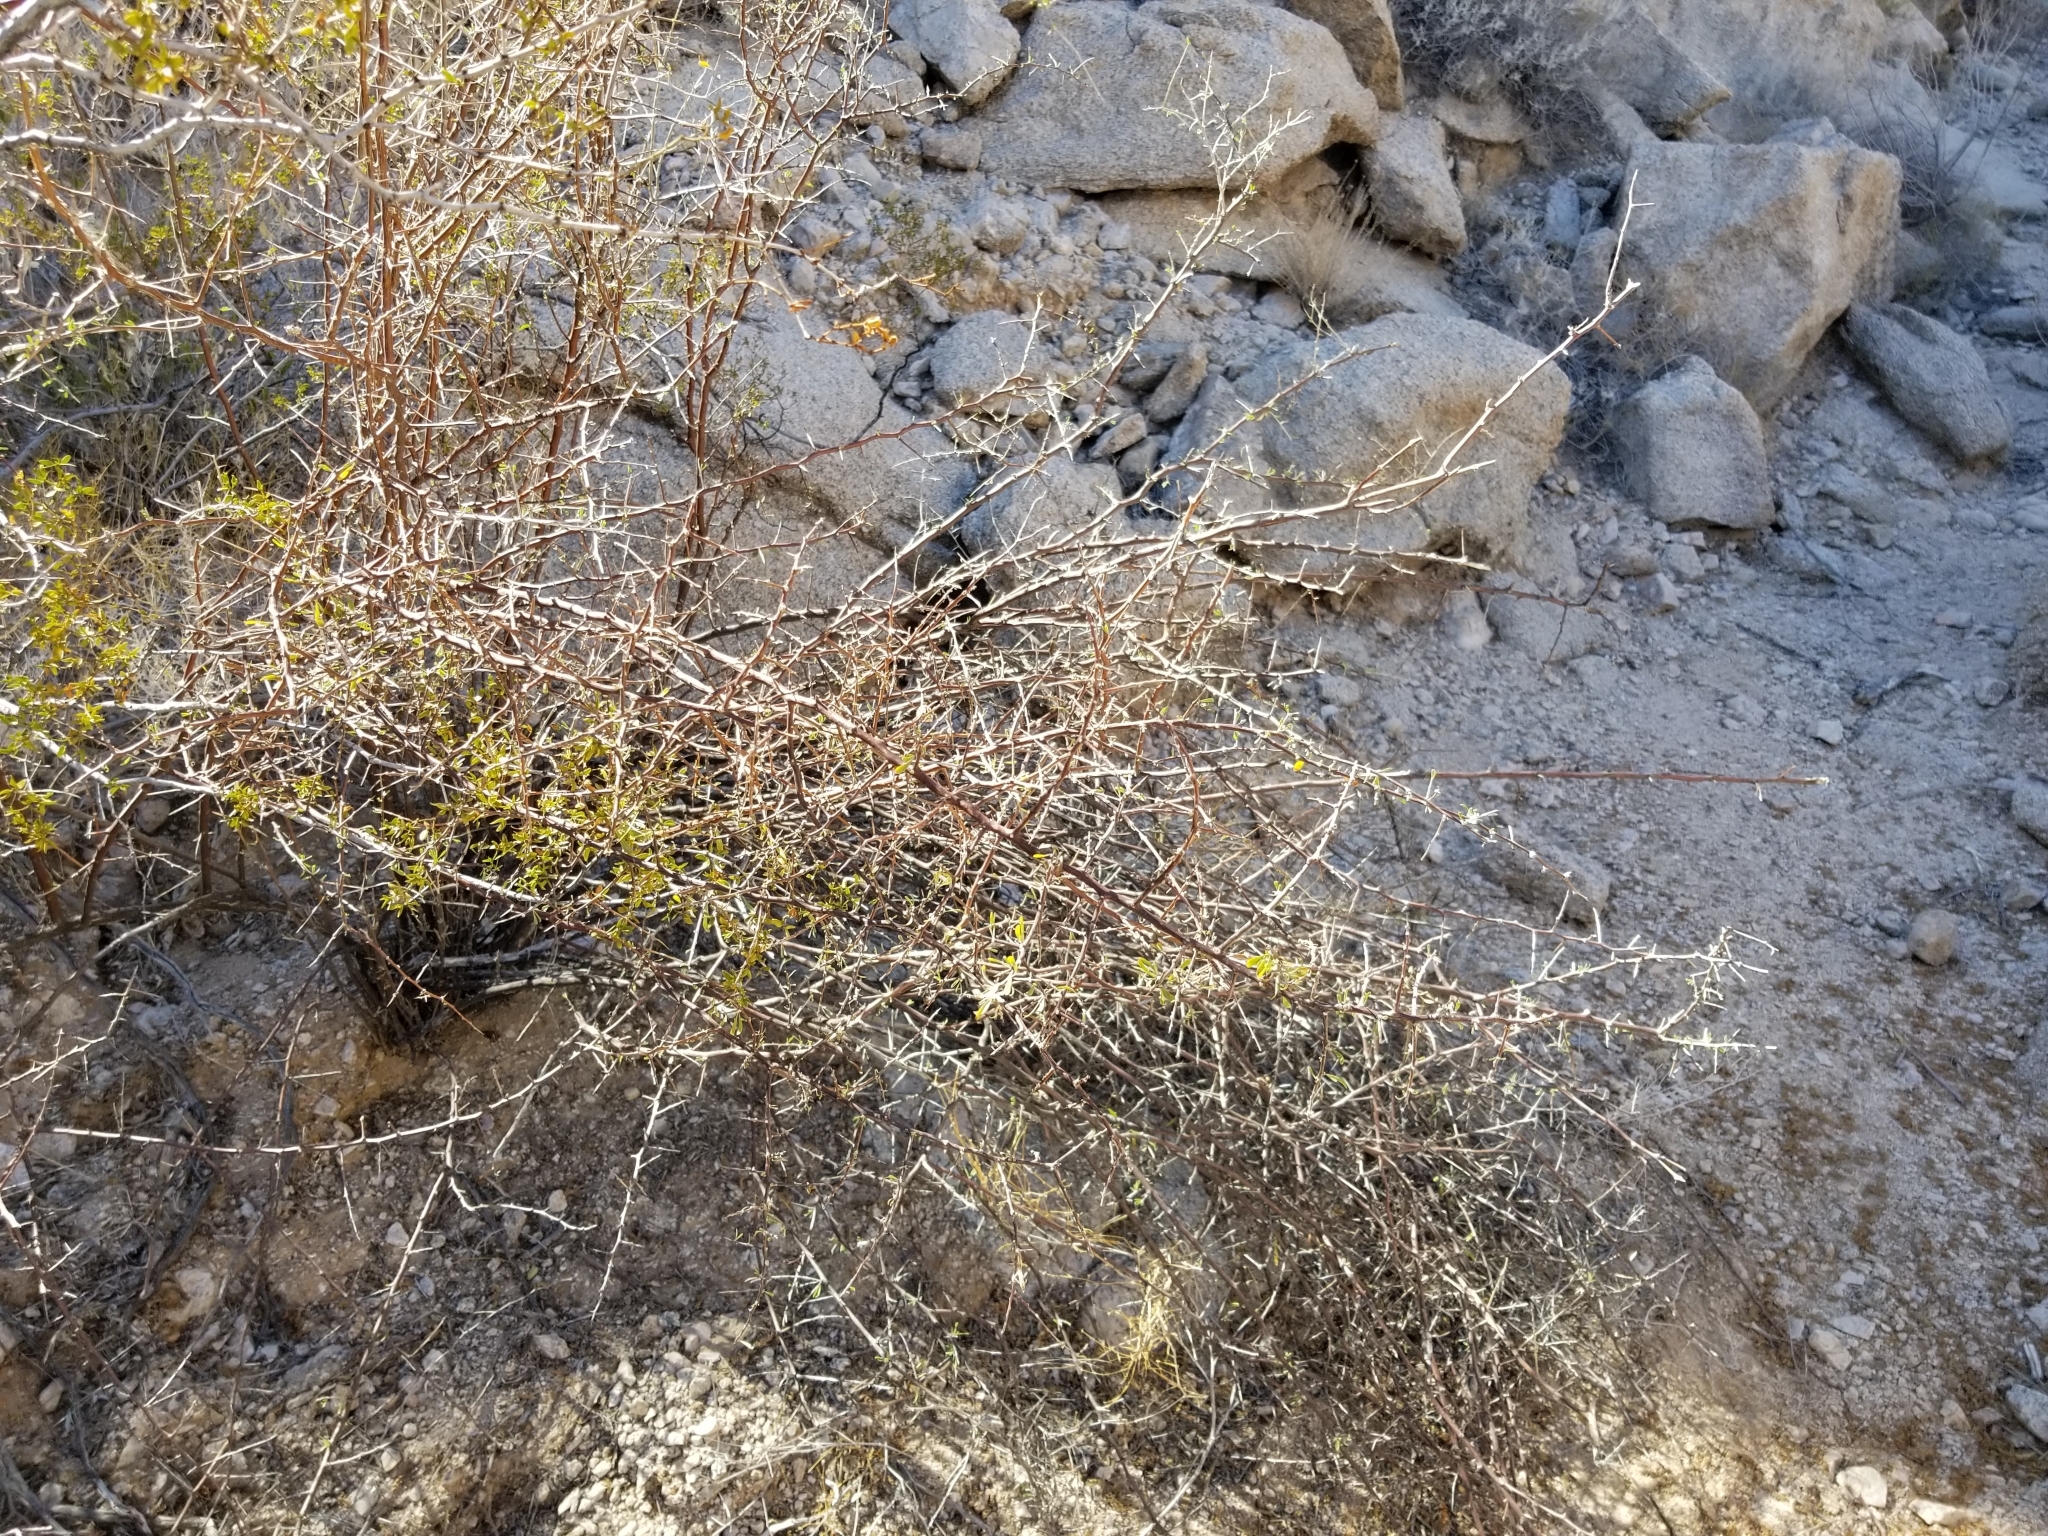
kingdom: Plantae
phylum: Tracheophyta
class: Magnoliopsida
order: Solanales
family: Solanaceae
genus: Lycium
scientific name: Lycium berlandieri
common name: Berlandier wolfberry
